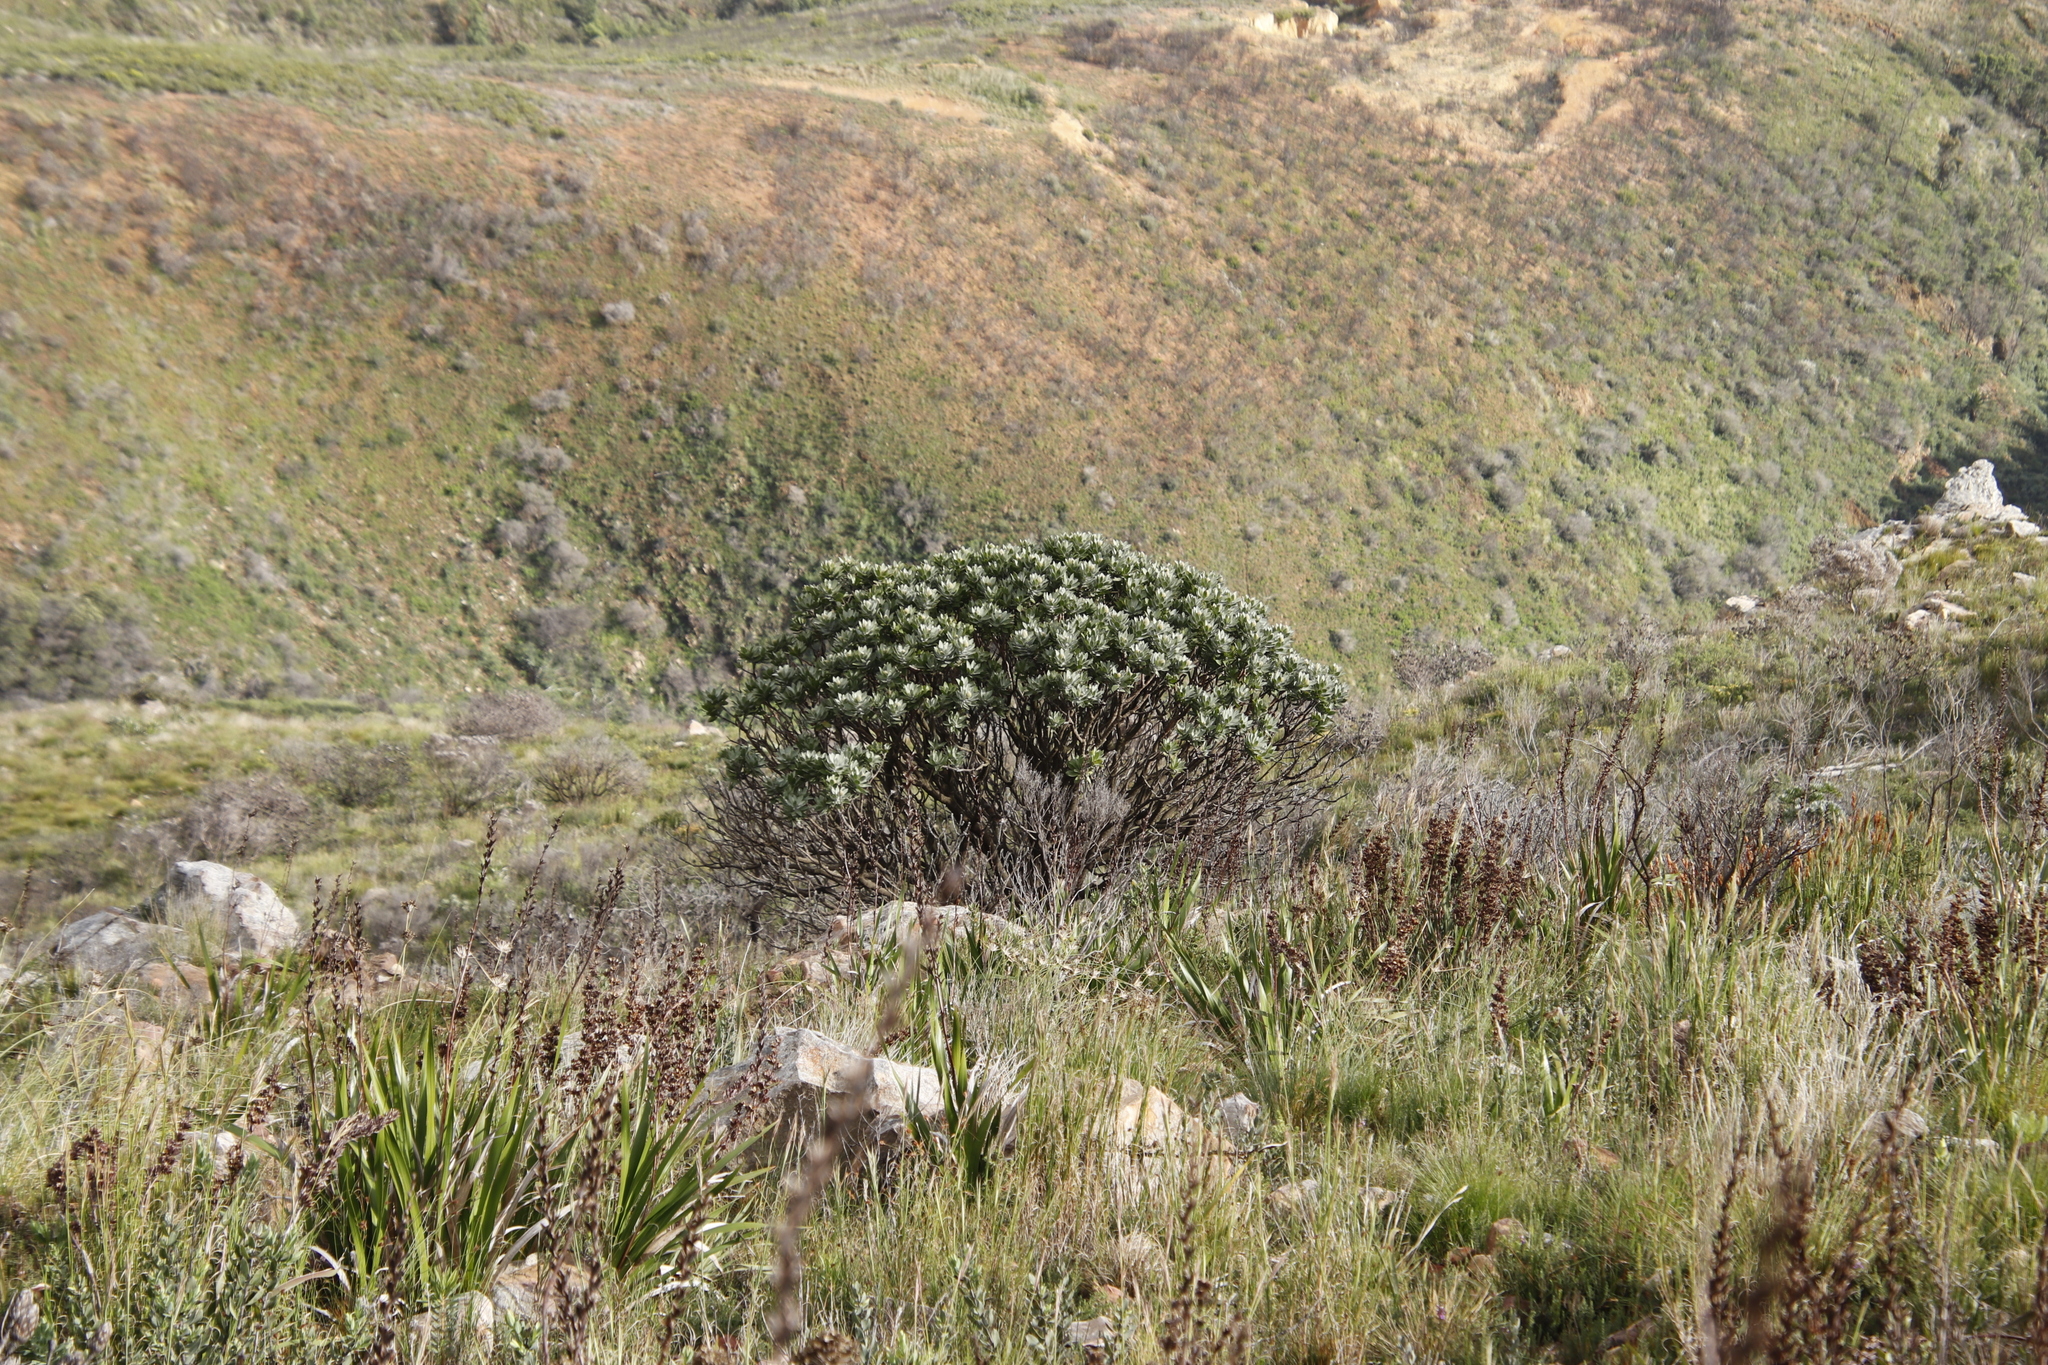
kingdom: Plantae
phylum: Tracheophyta
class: Magnoliopsida
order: Proteales
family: Proteaceae
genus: Leucospermum
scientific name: Leucospermum conocarpodendron
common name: Tree pincushion
